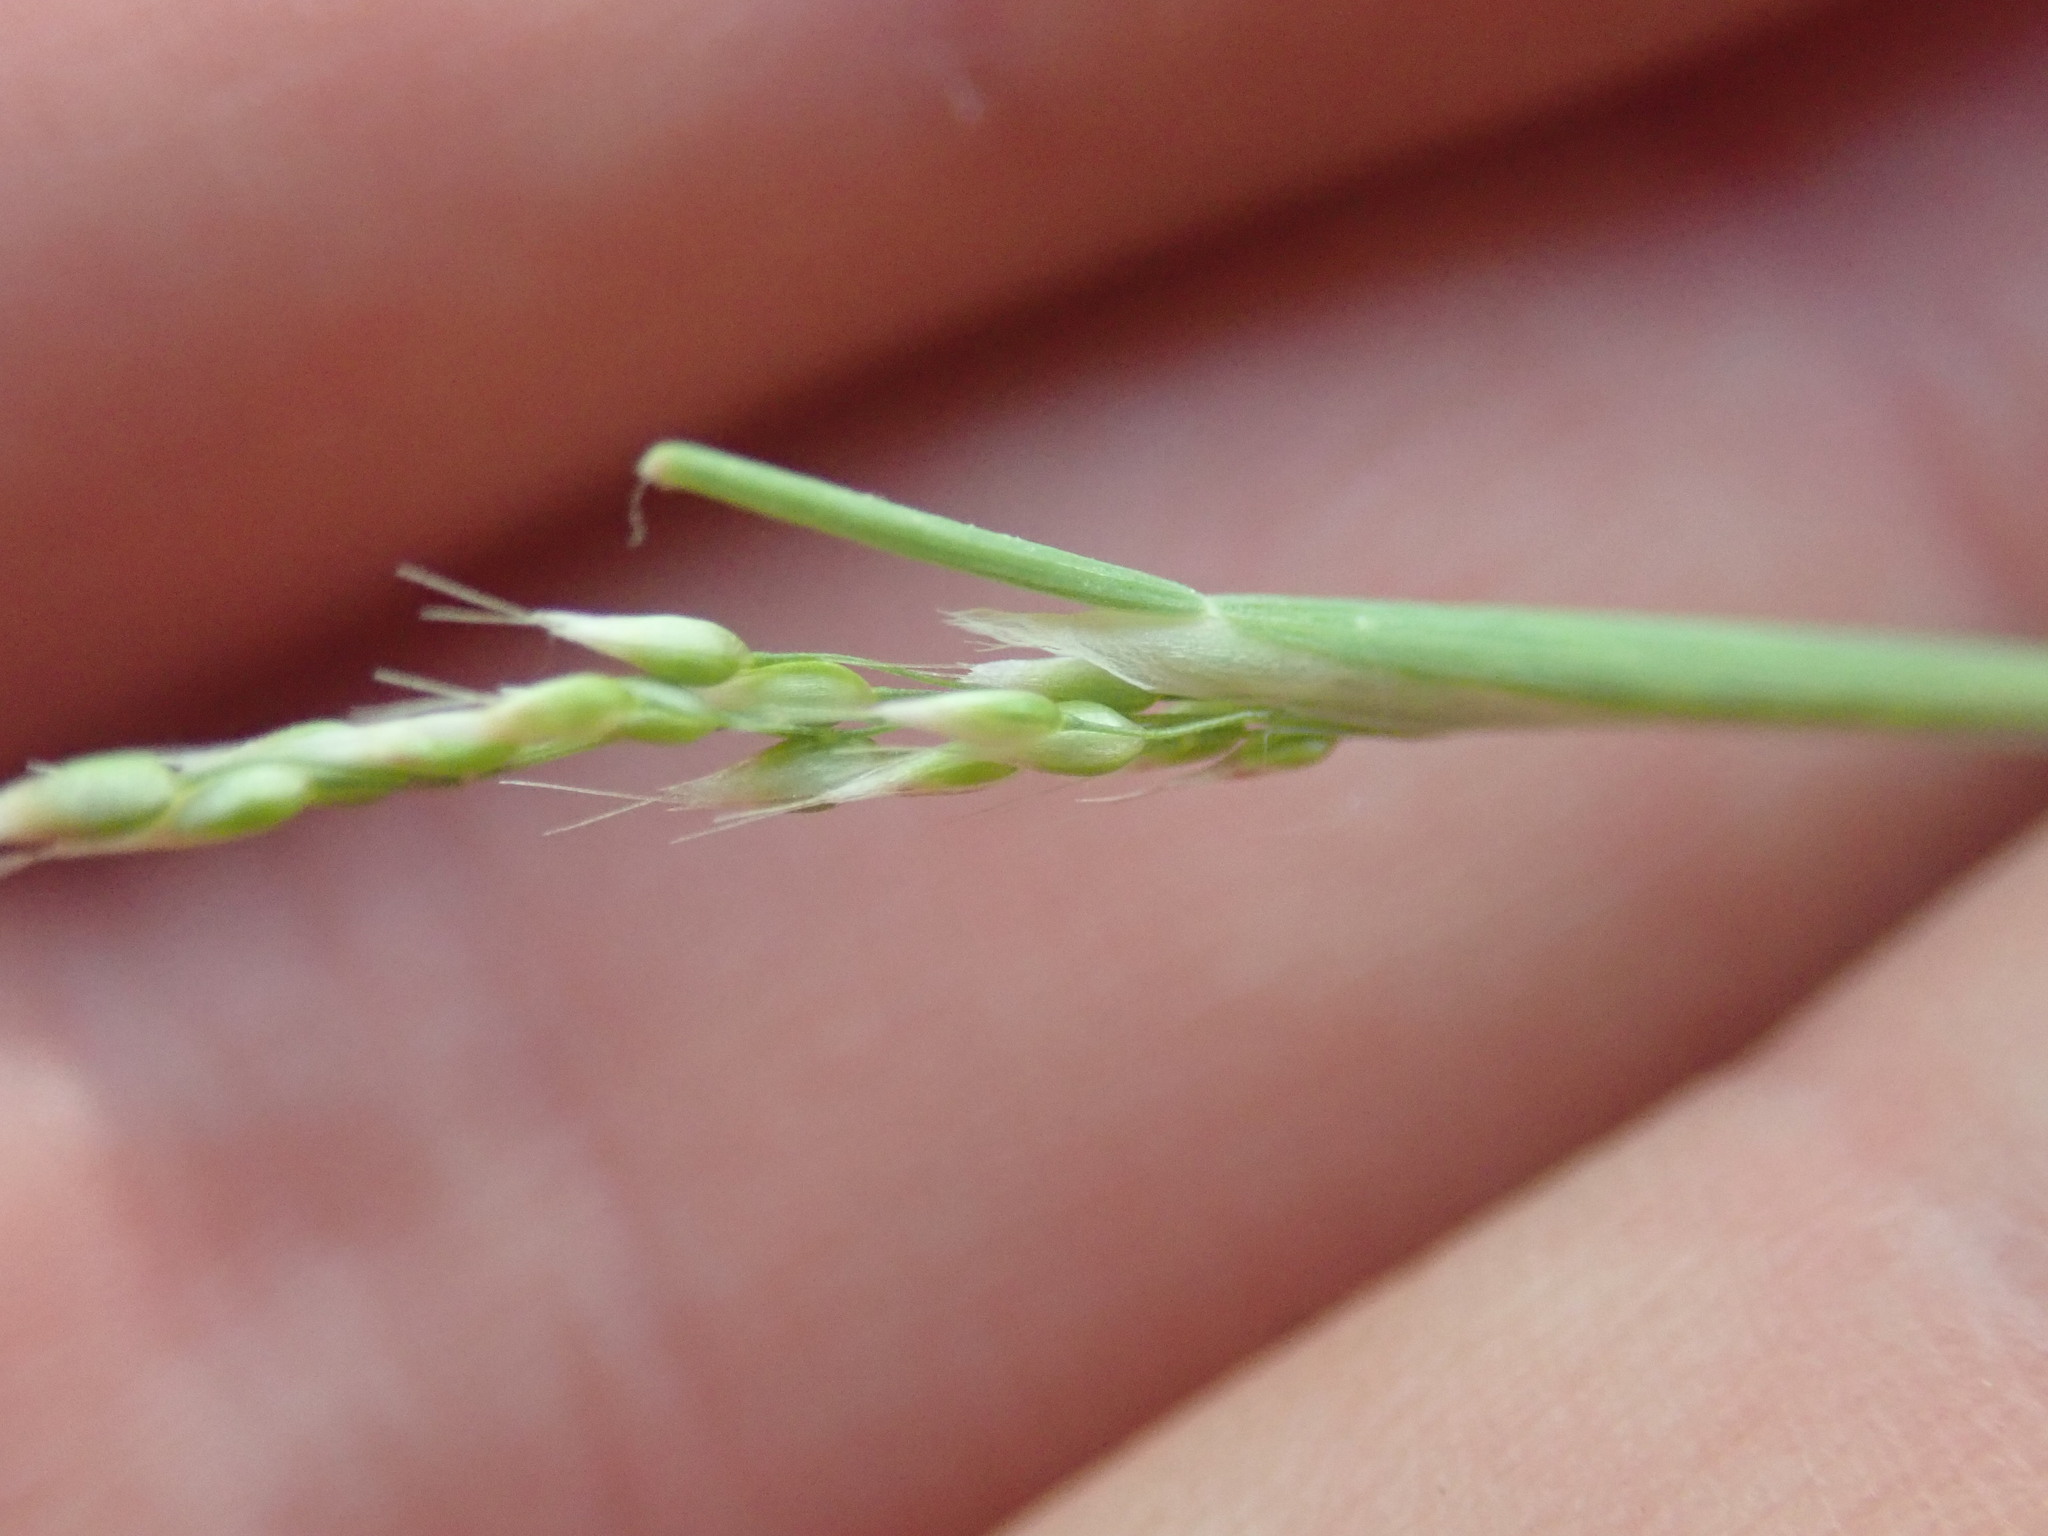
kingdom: Plantae
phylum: Tracheophyta
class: Liliopsida
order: Poales
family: Poaceae
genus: Aira
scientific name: Aira praecox
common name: Early hair-grass
